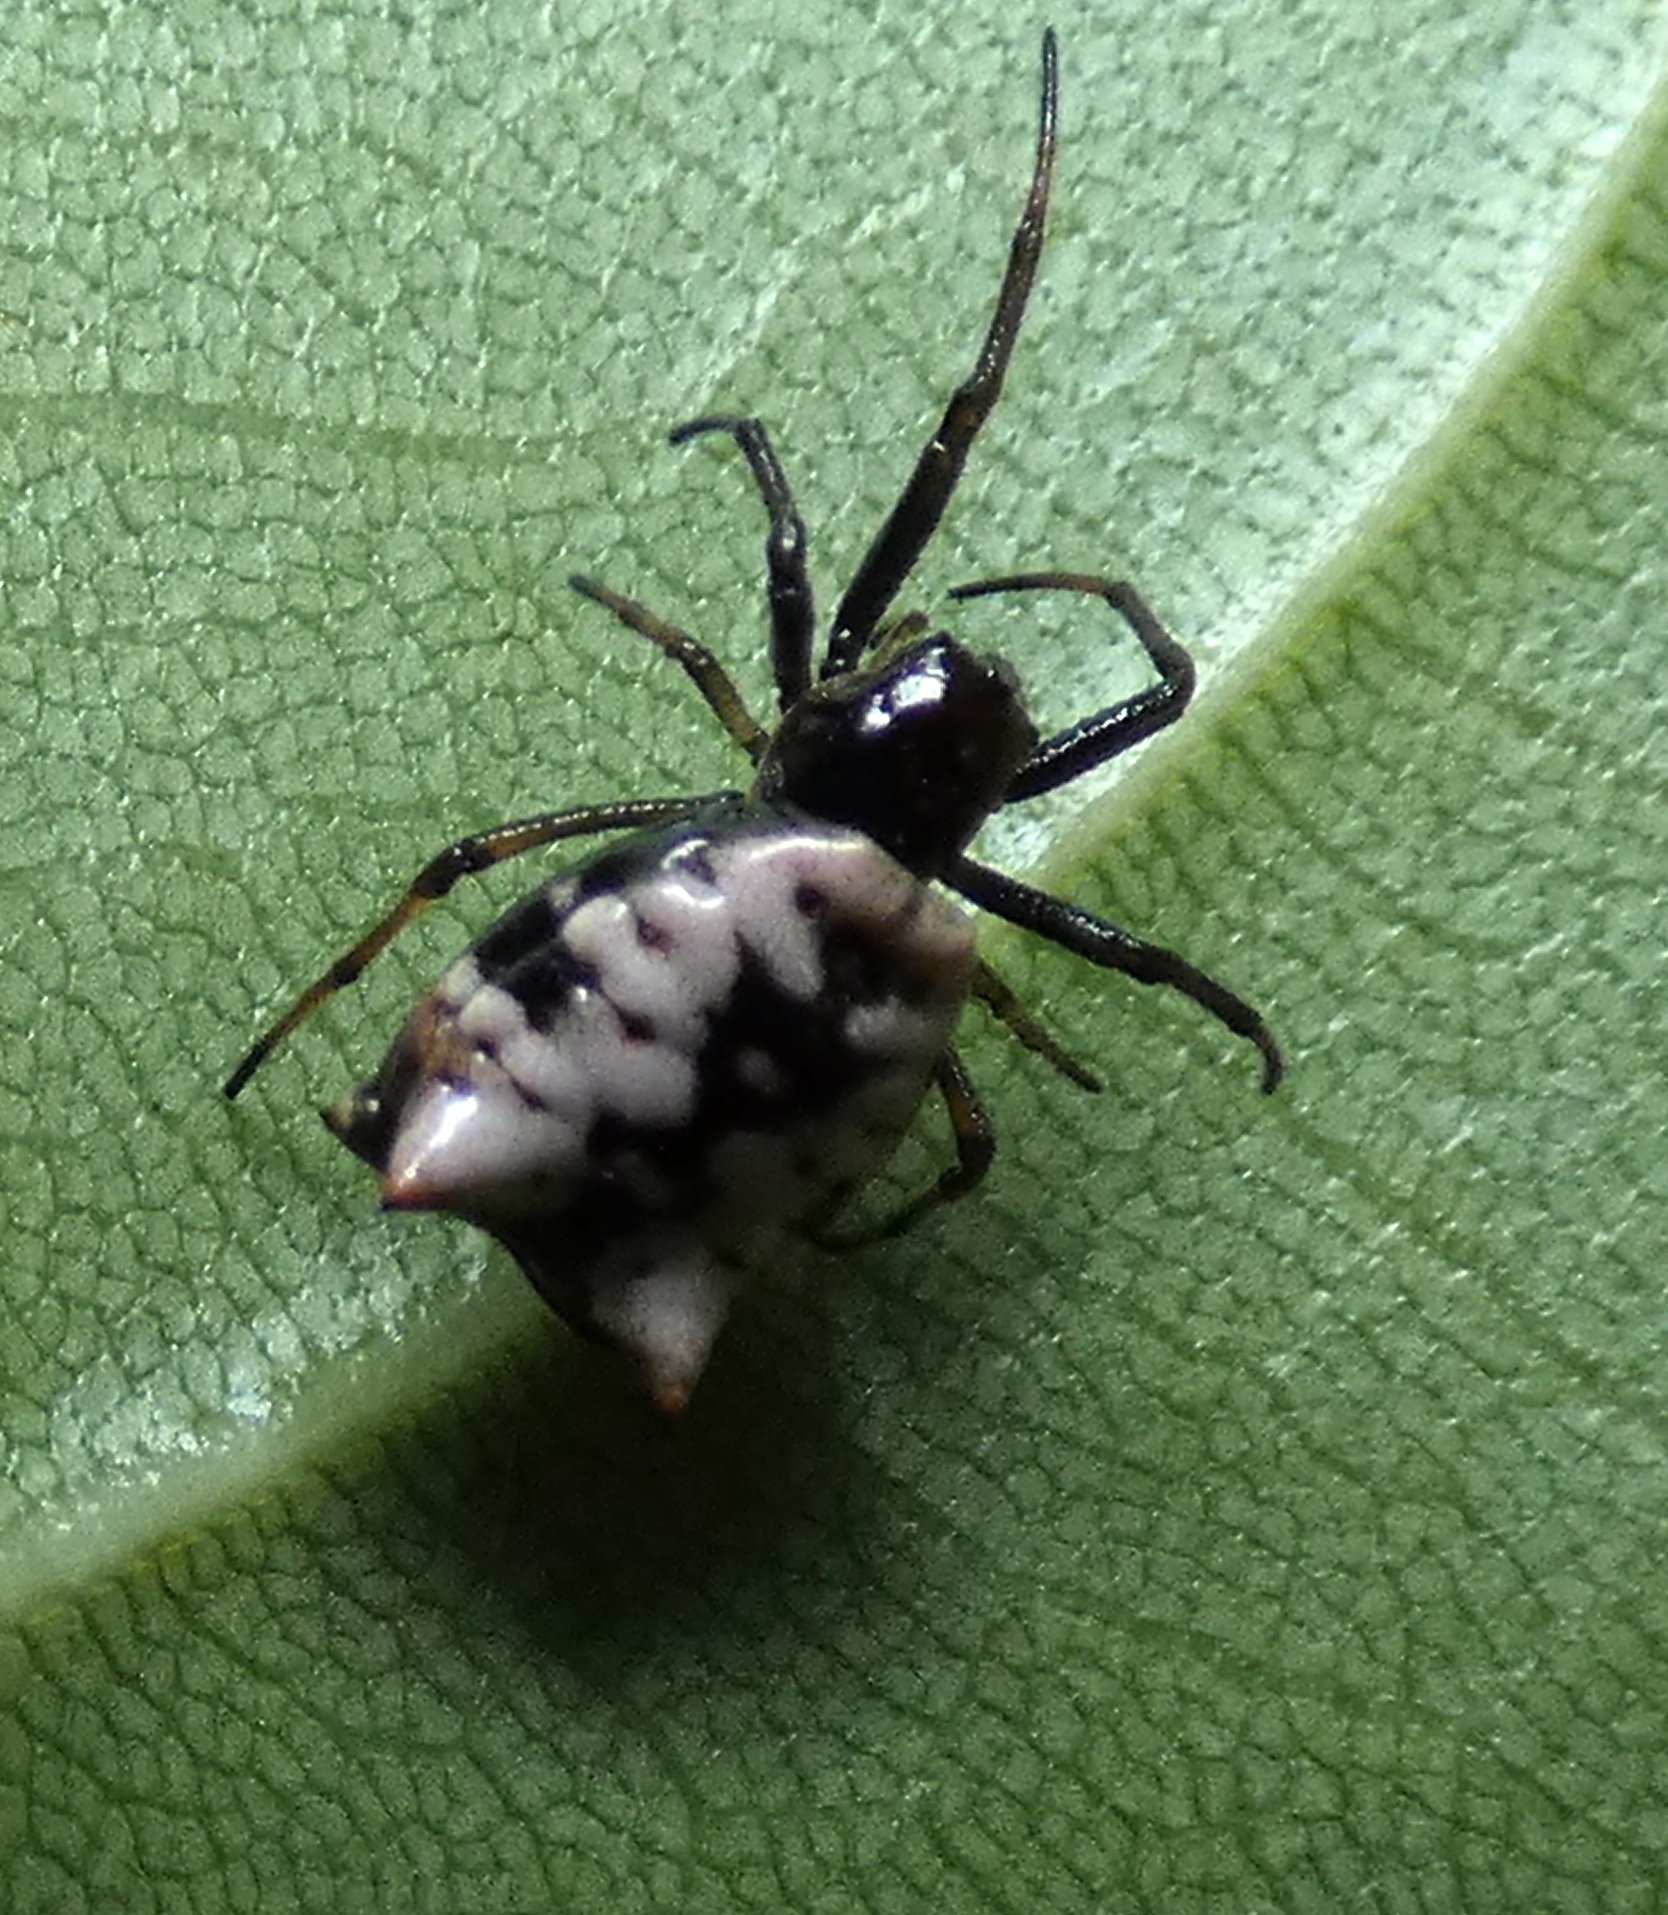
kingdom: Animalia
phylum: Arthropoda
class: Arachnida
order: Araneae
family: Araneidae
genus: Micrathena
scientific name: Micrathena patruelis
